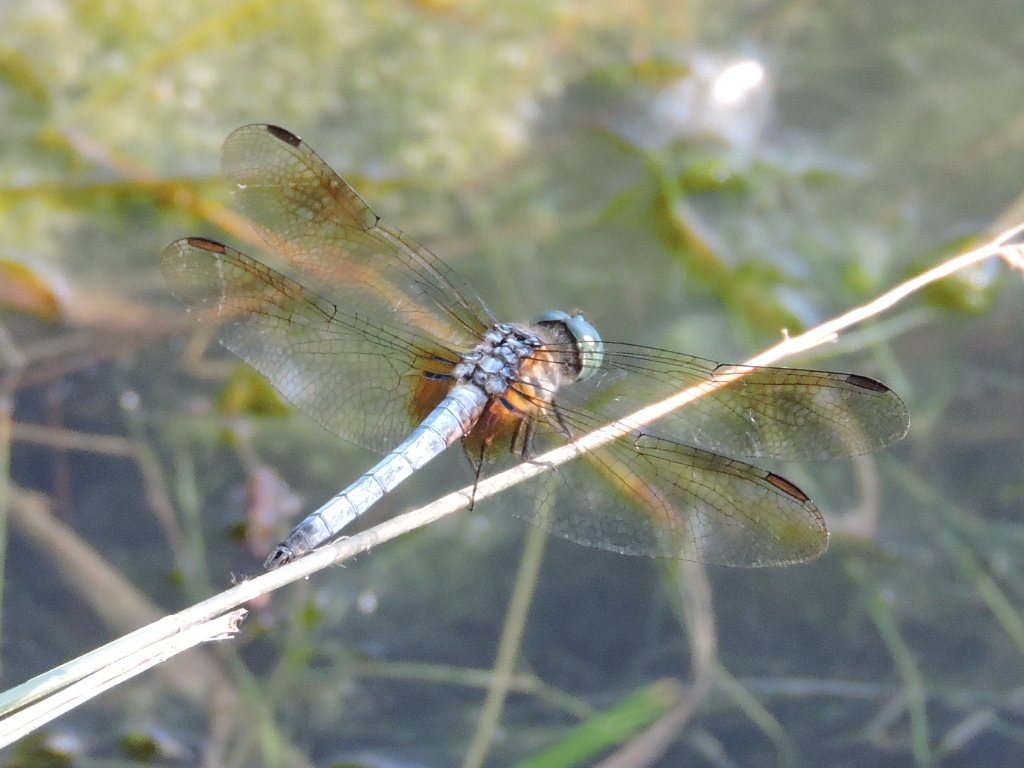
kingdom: Animalia
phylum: Arthropoda
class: Insecta
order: Odonata
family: Libellulidae
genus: Pachydiplax
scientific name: Pachydiplax longipennis
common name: Blue dasher
